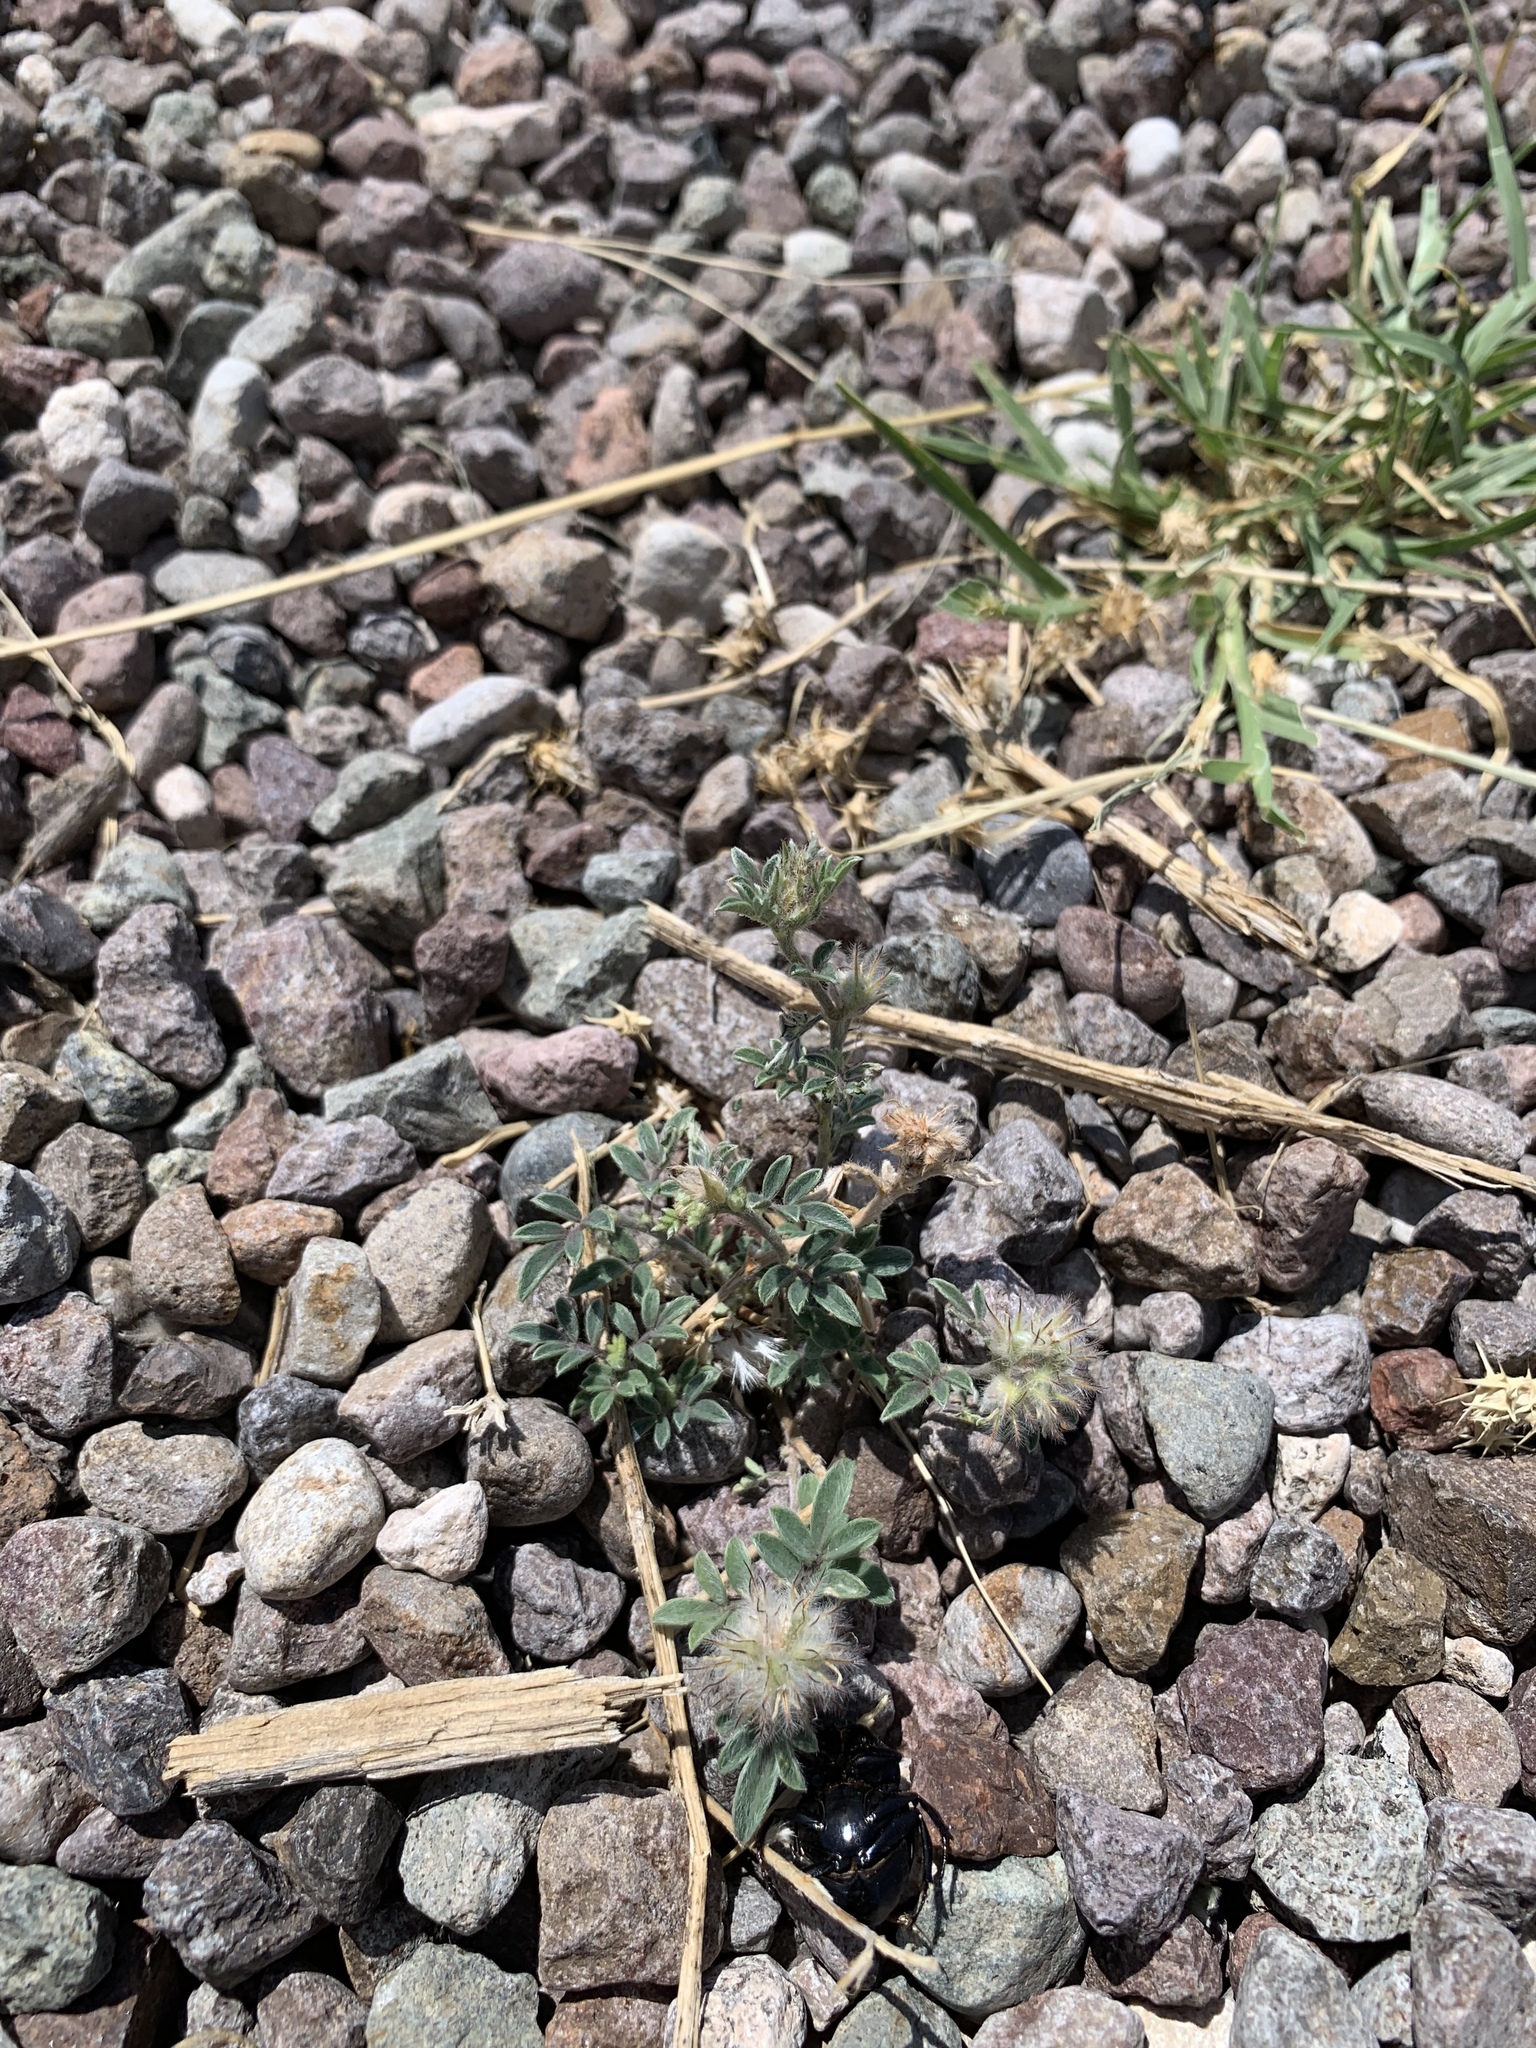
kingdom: Plantae
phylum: Tracheophyta
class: Magnoliopsida
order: Fabales
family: Fabaceae
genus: Dalea
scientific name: Dalea nana
